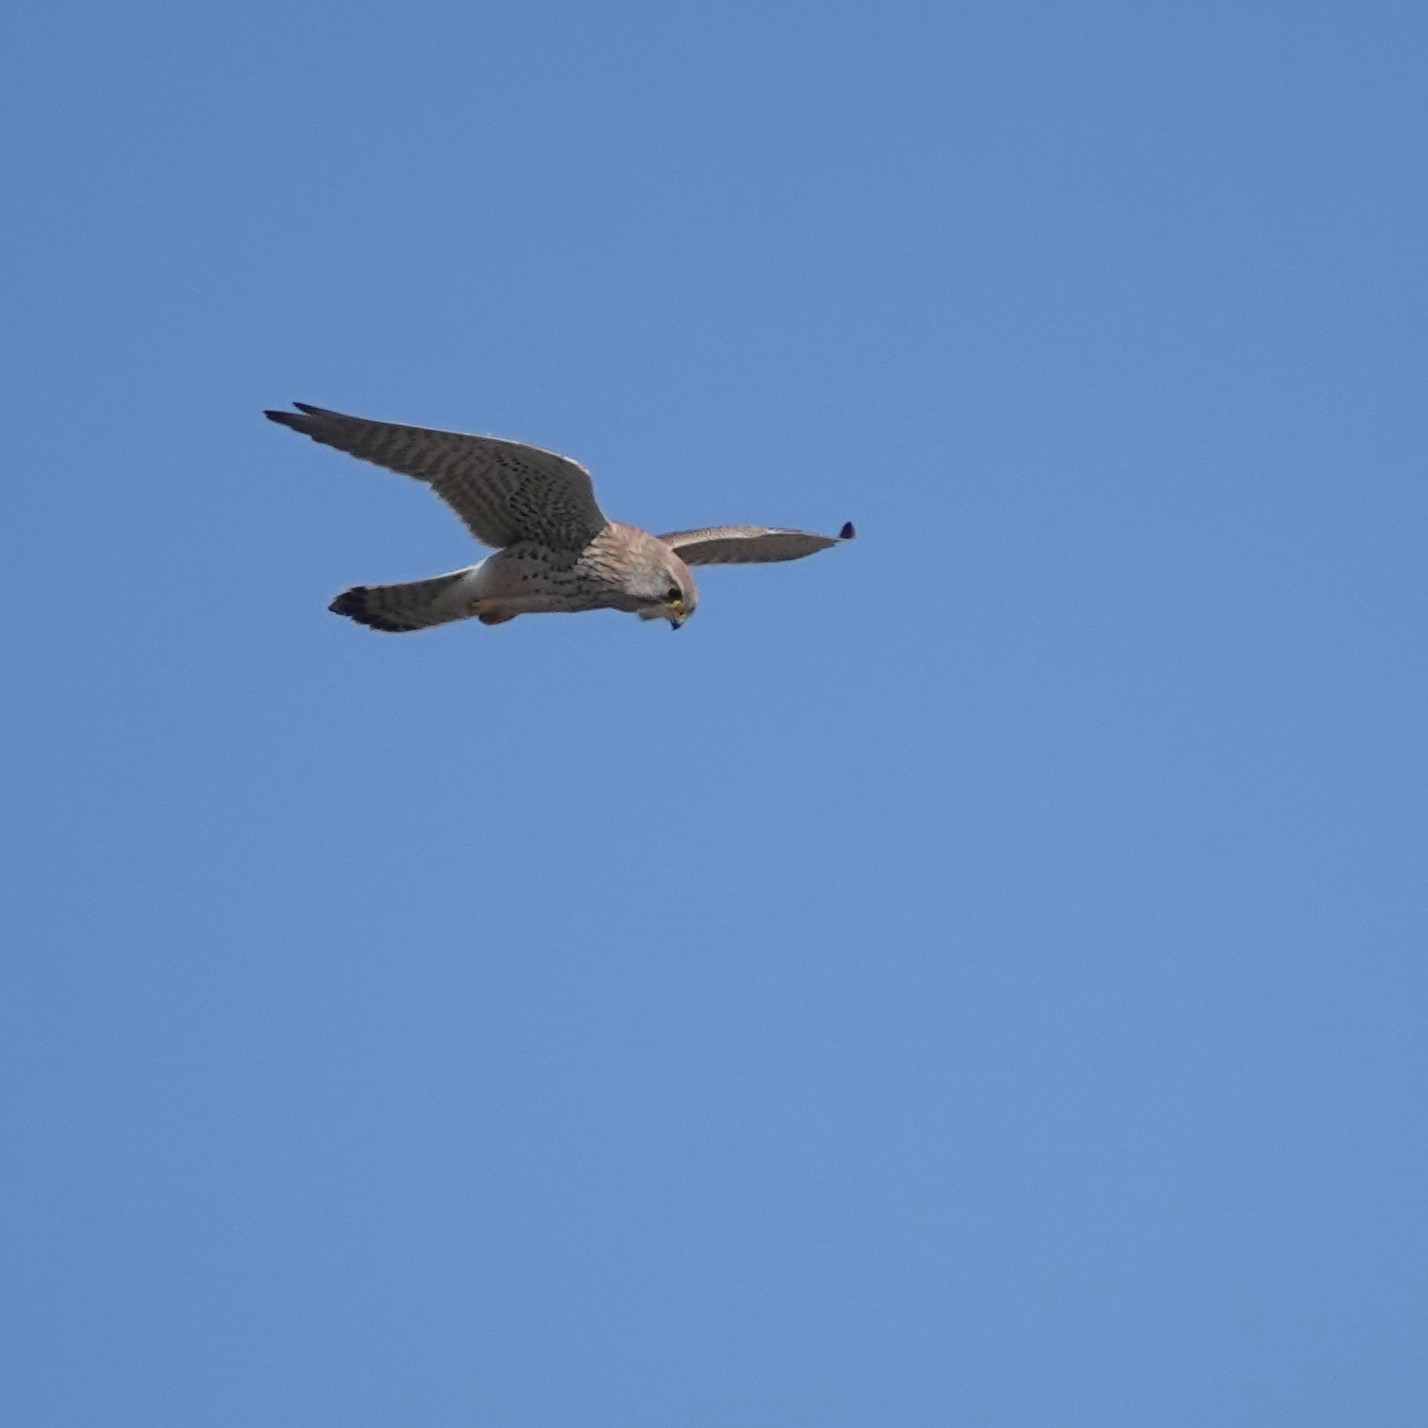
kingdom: Animalia
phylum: Chordata
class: Aves
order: Falconiformes
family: Falconidae
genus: Falco
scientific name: Falco tinnunculus
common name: Common kestrel
